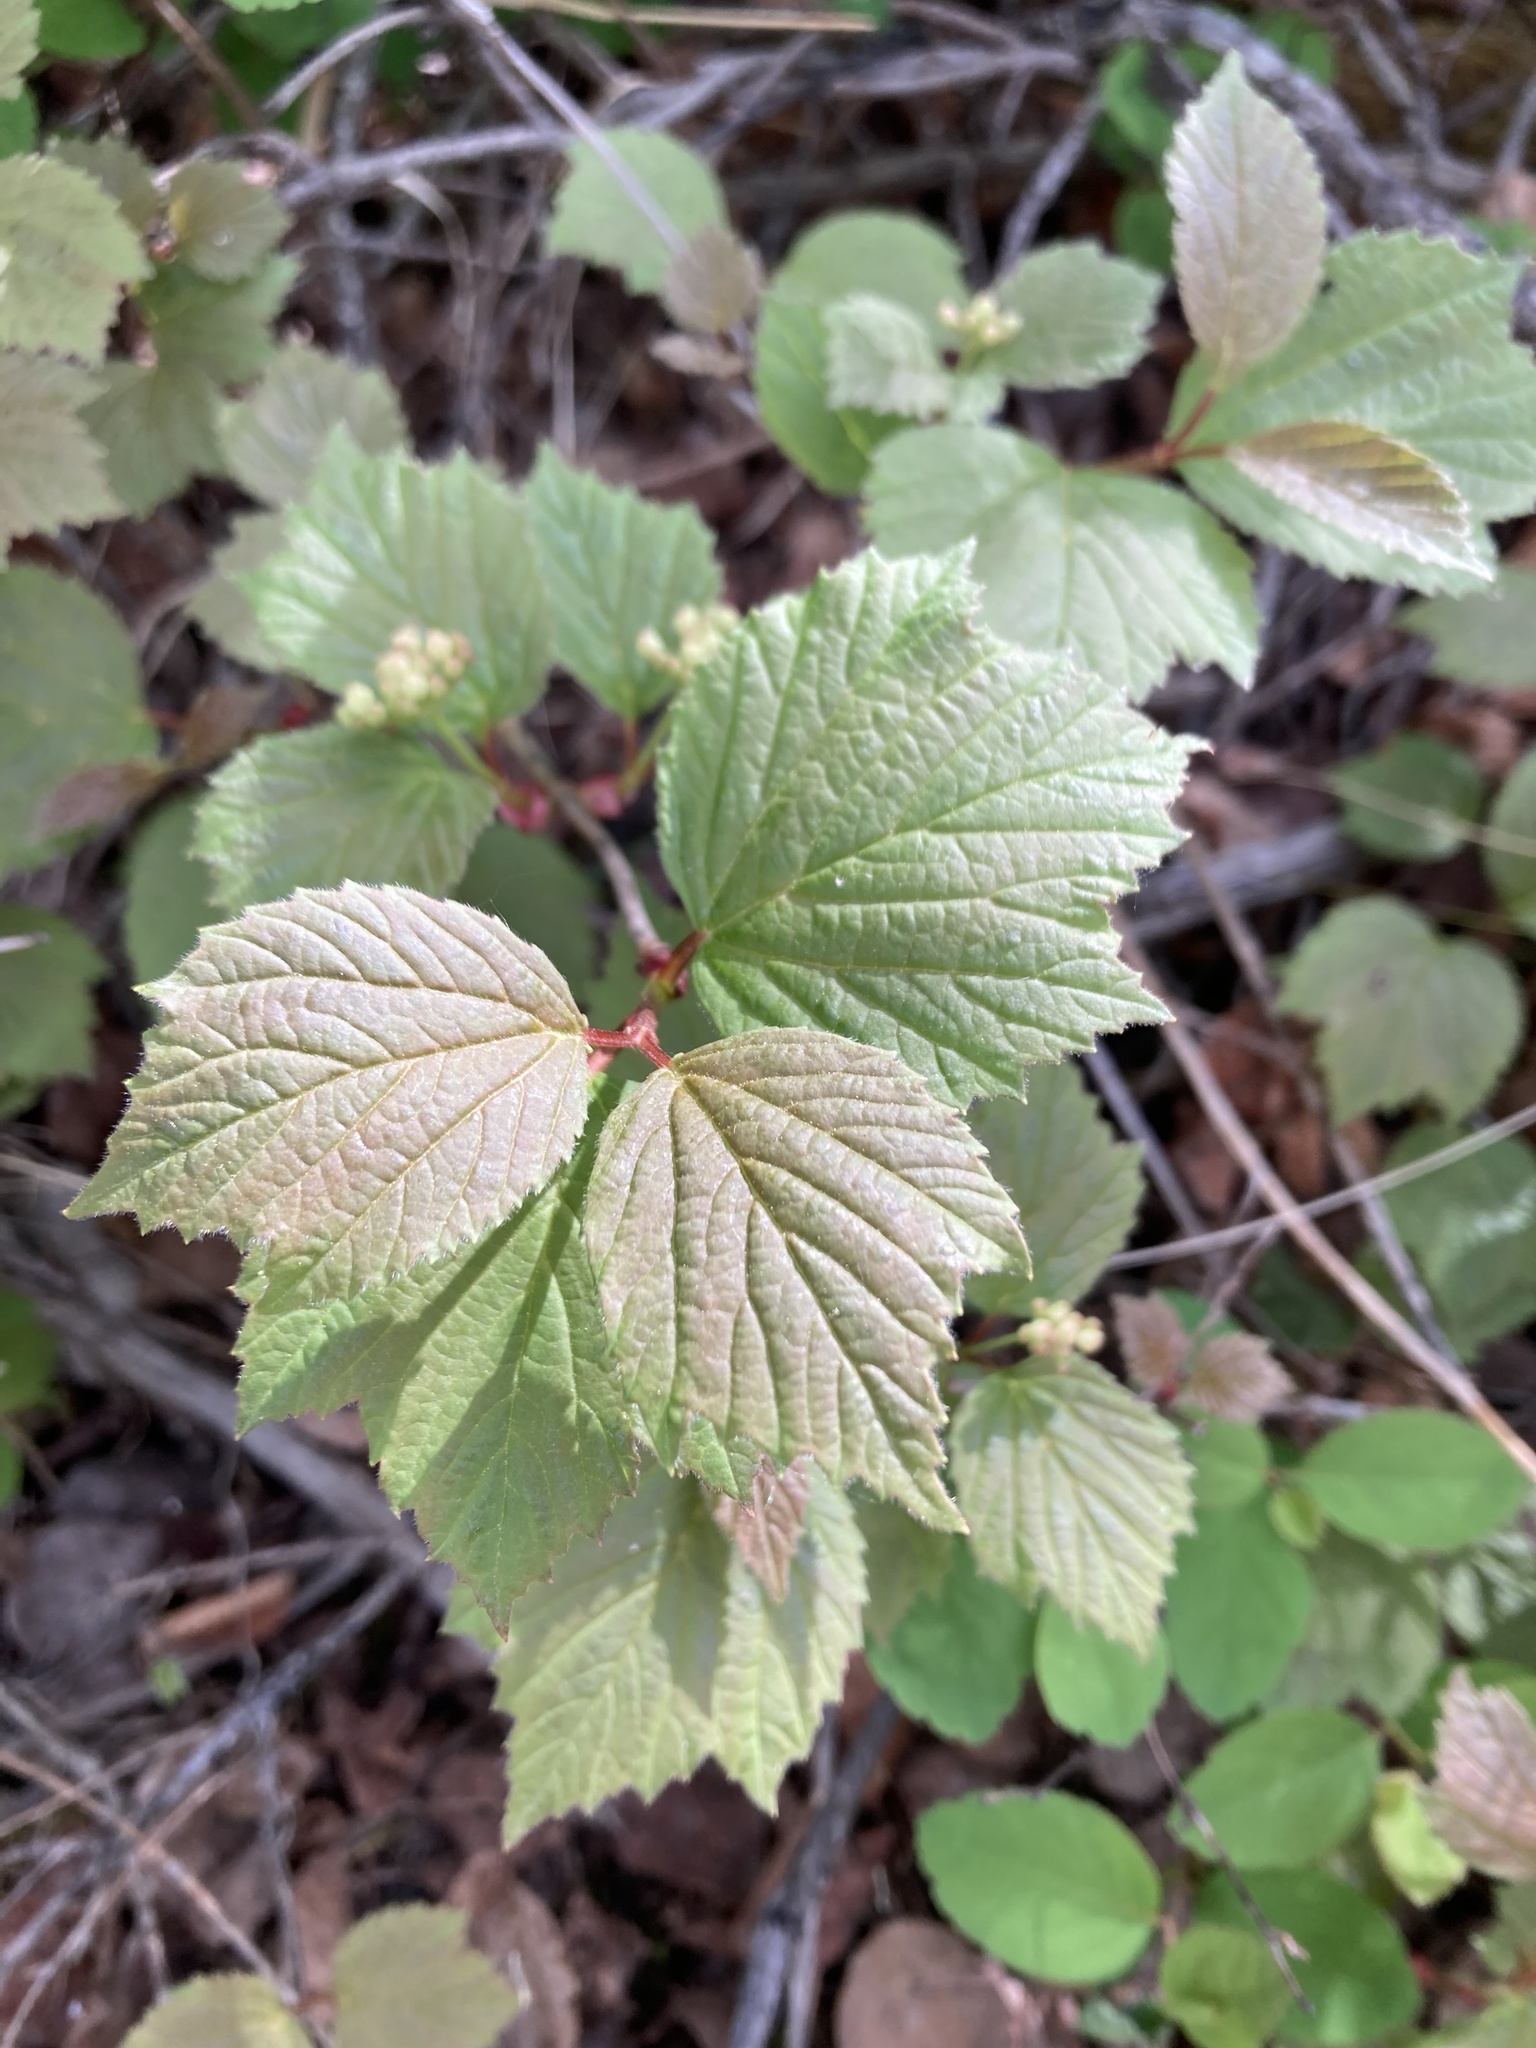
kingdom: Plantae
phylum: Tracheophyta
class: Magnoliopsida
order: Dipsacales
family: Viburnaceae
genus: Viburnum
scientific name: Viburnum edule
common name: Mooseberry
